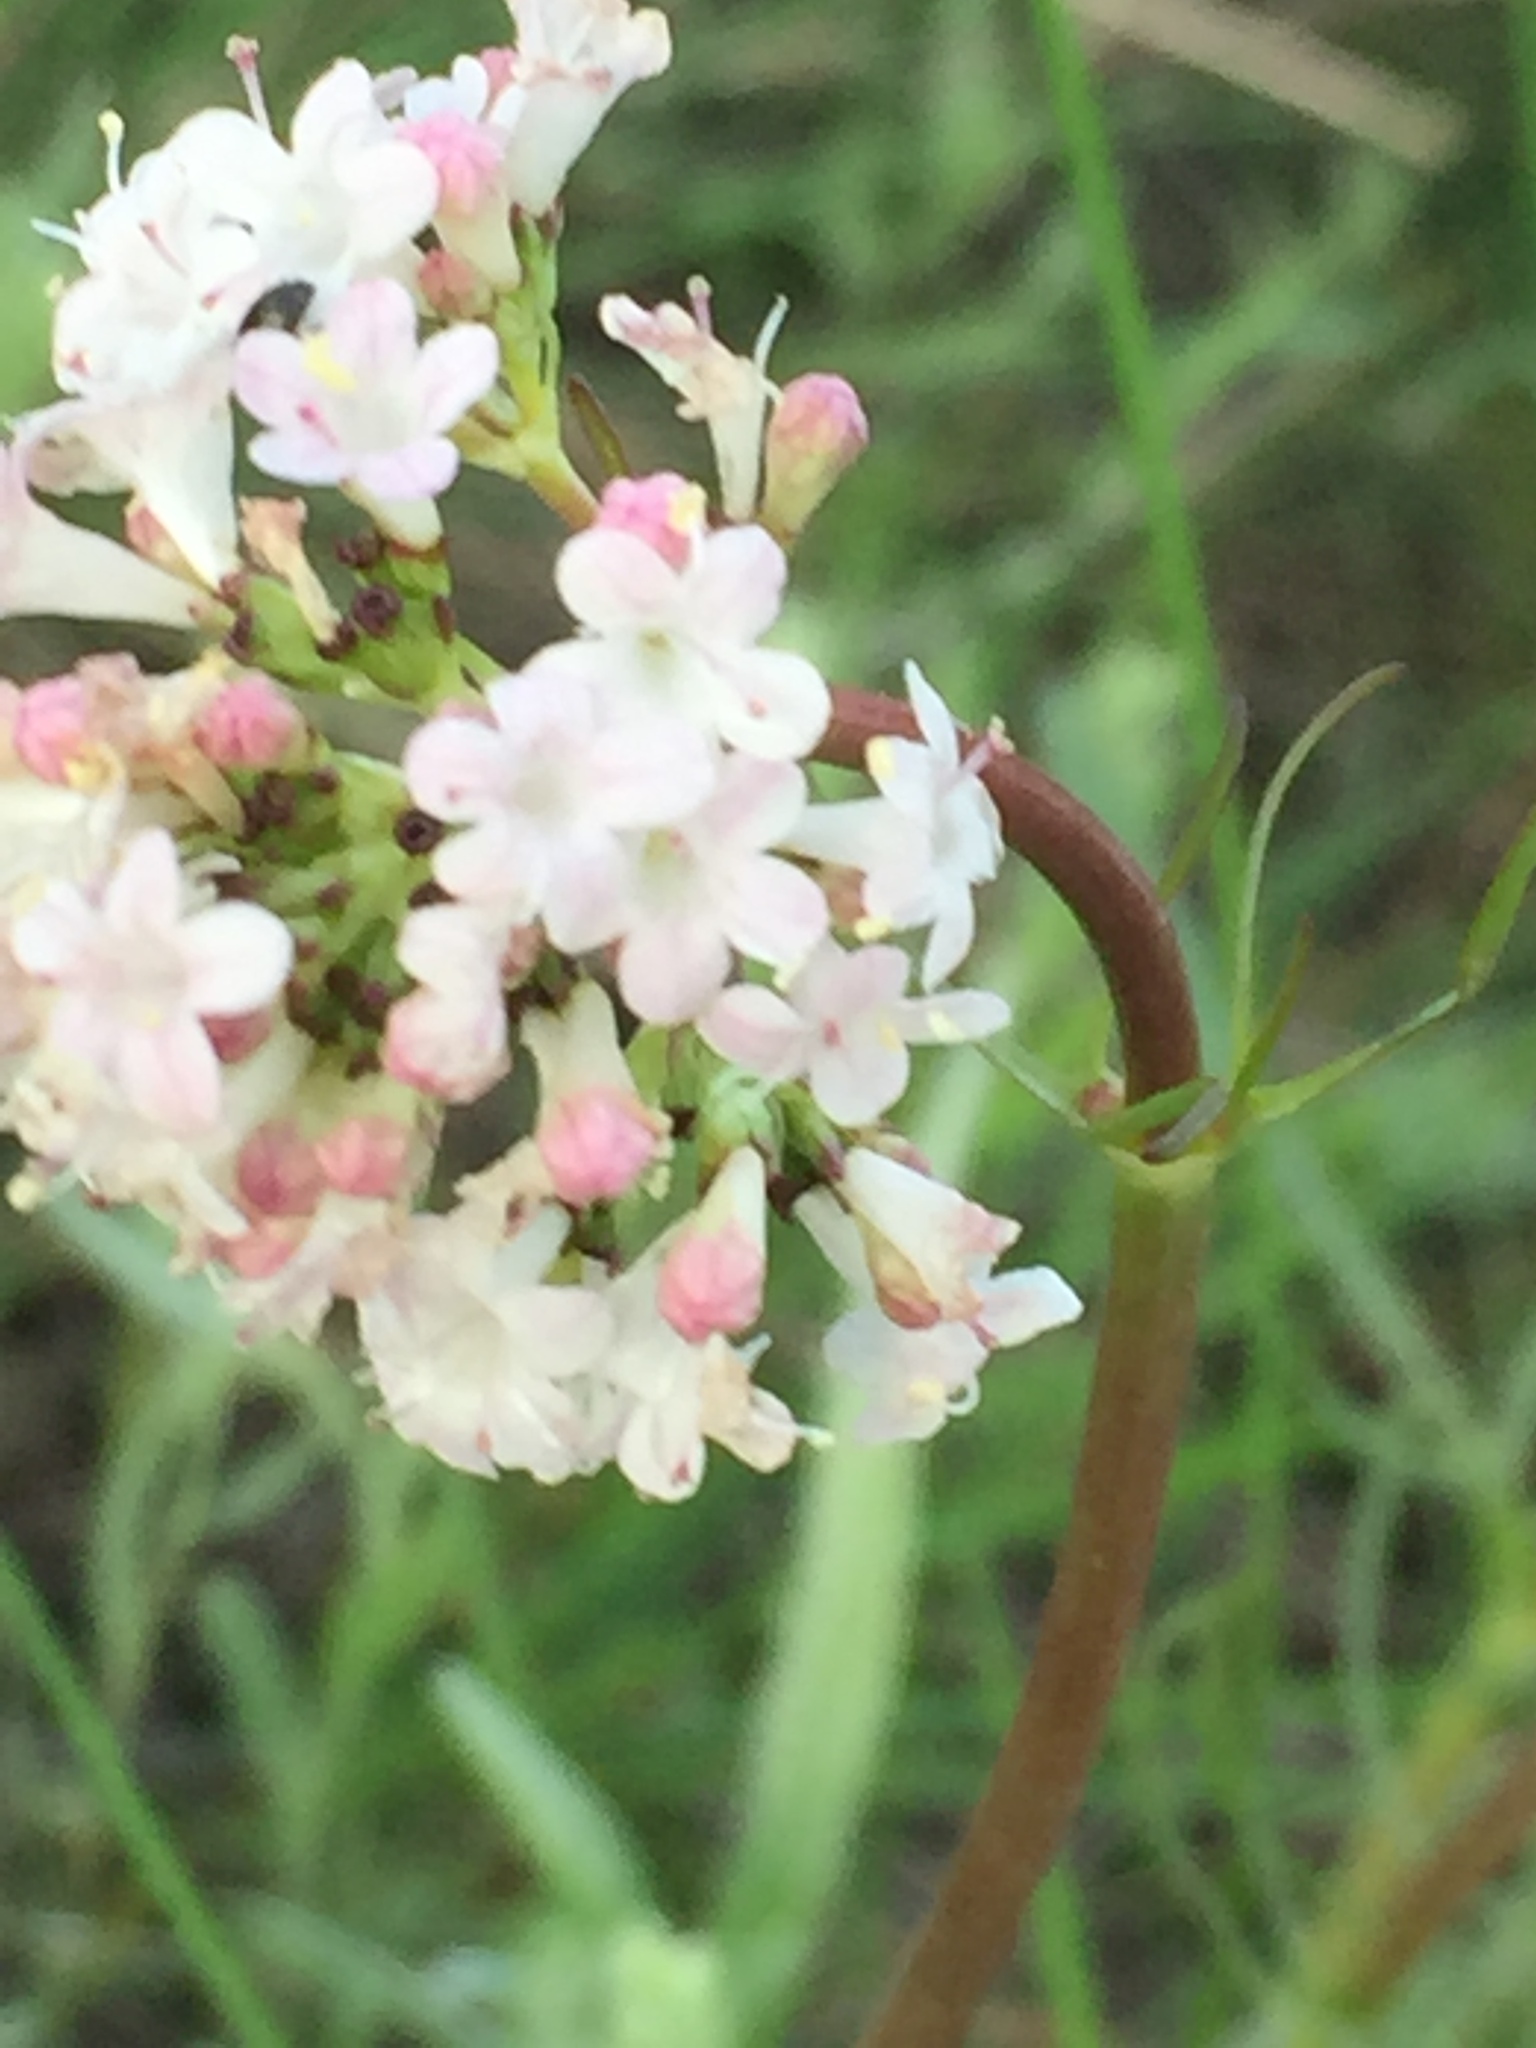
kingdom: Plantae
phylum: Tracheophyta
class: Magnoliopsida
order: Dipsacales
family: Caprifoliaceae
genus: Valeriana
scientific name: Valeriana tuberosa
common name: Tuberous valerian
